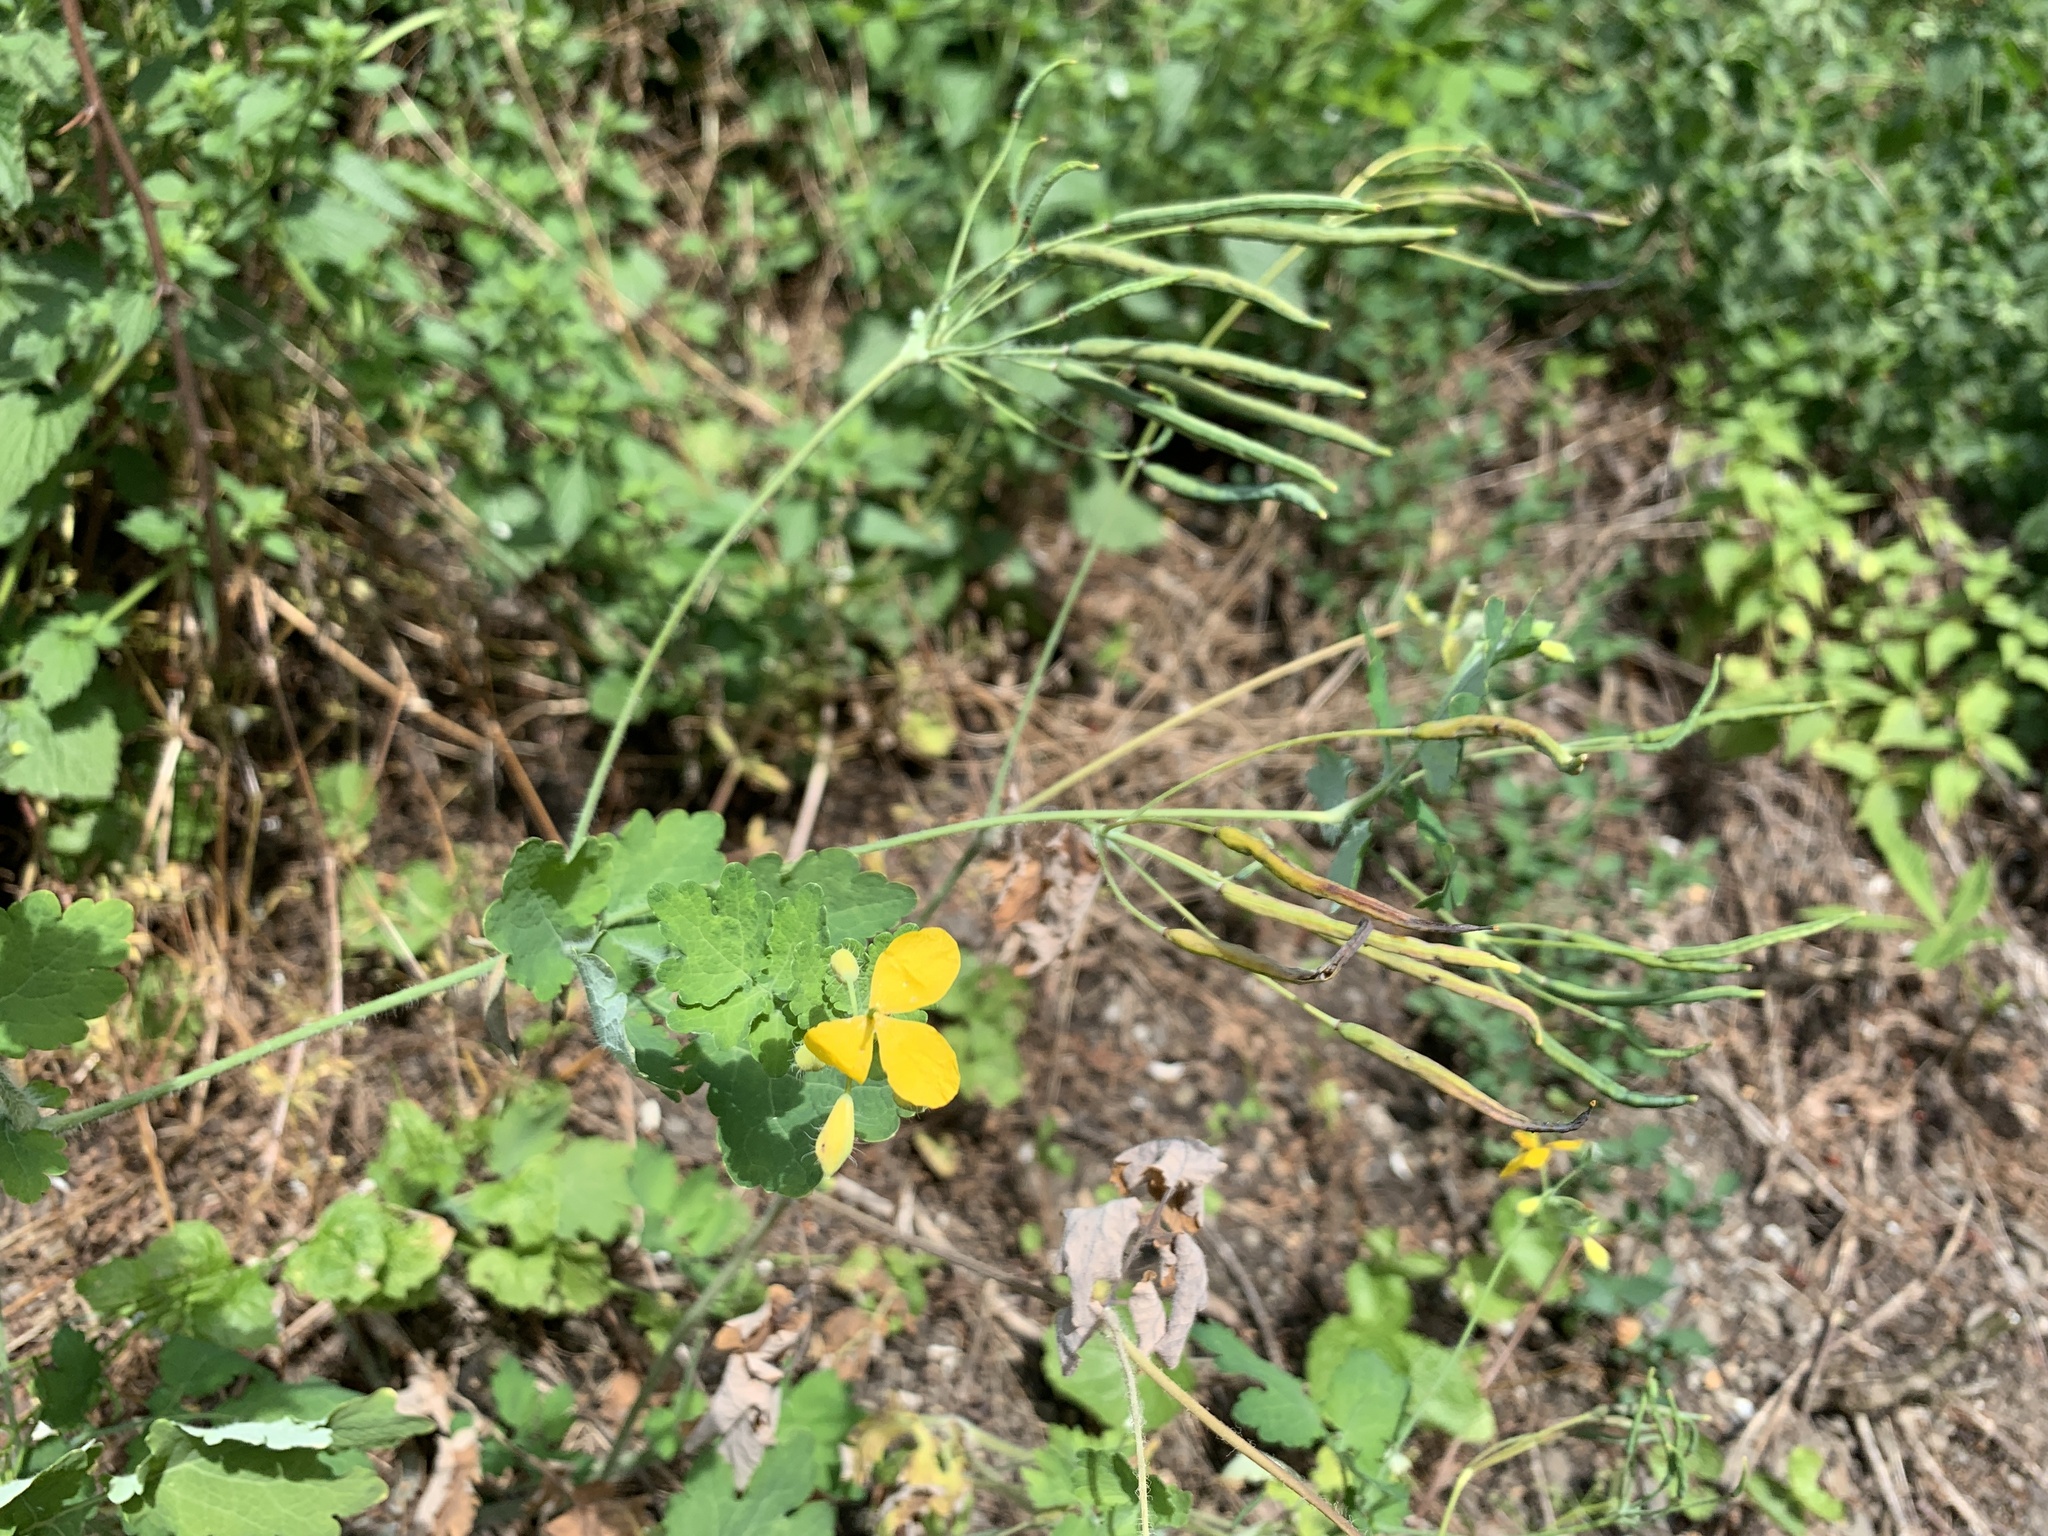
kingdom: Plantae
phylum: Tracheophyta
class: Magnoliopsida
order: Ranunculales
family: Papaveraceae
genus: Chelidonium
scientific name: Chelidonium majus
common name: Greater celandine
